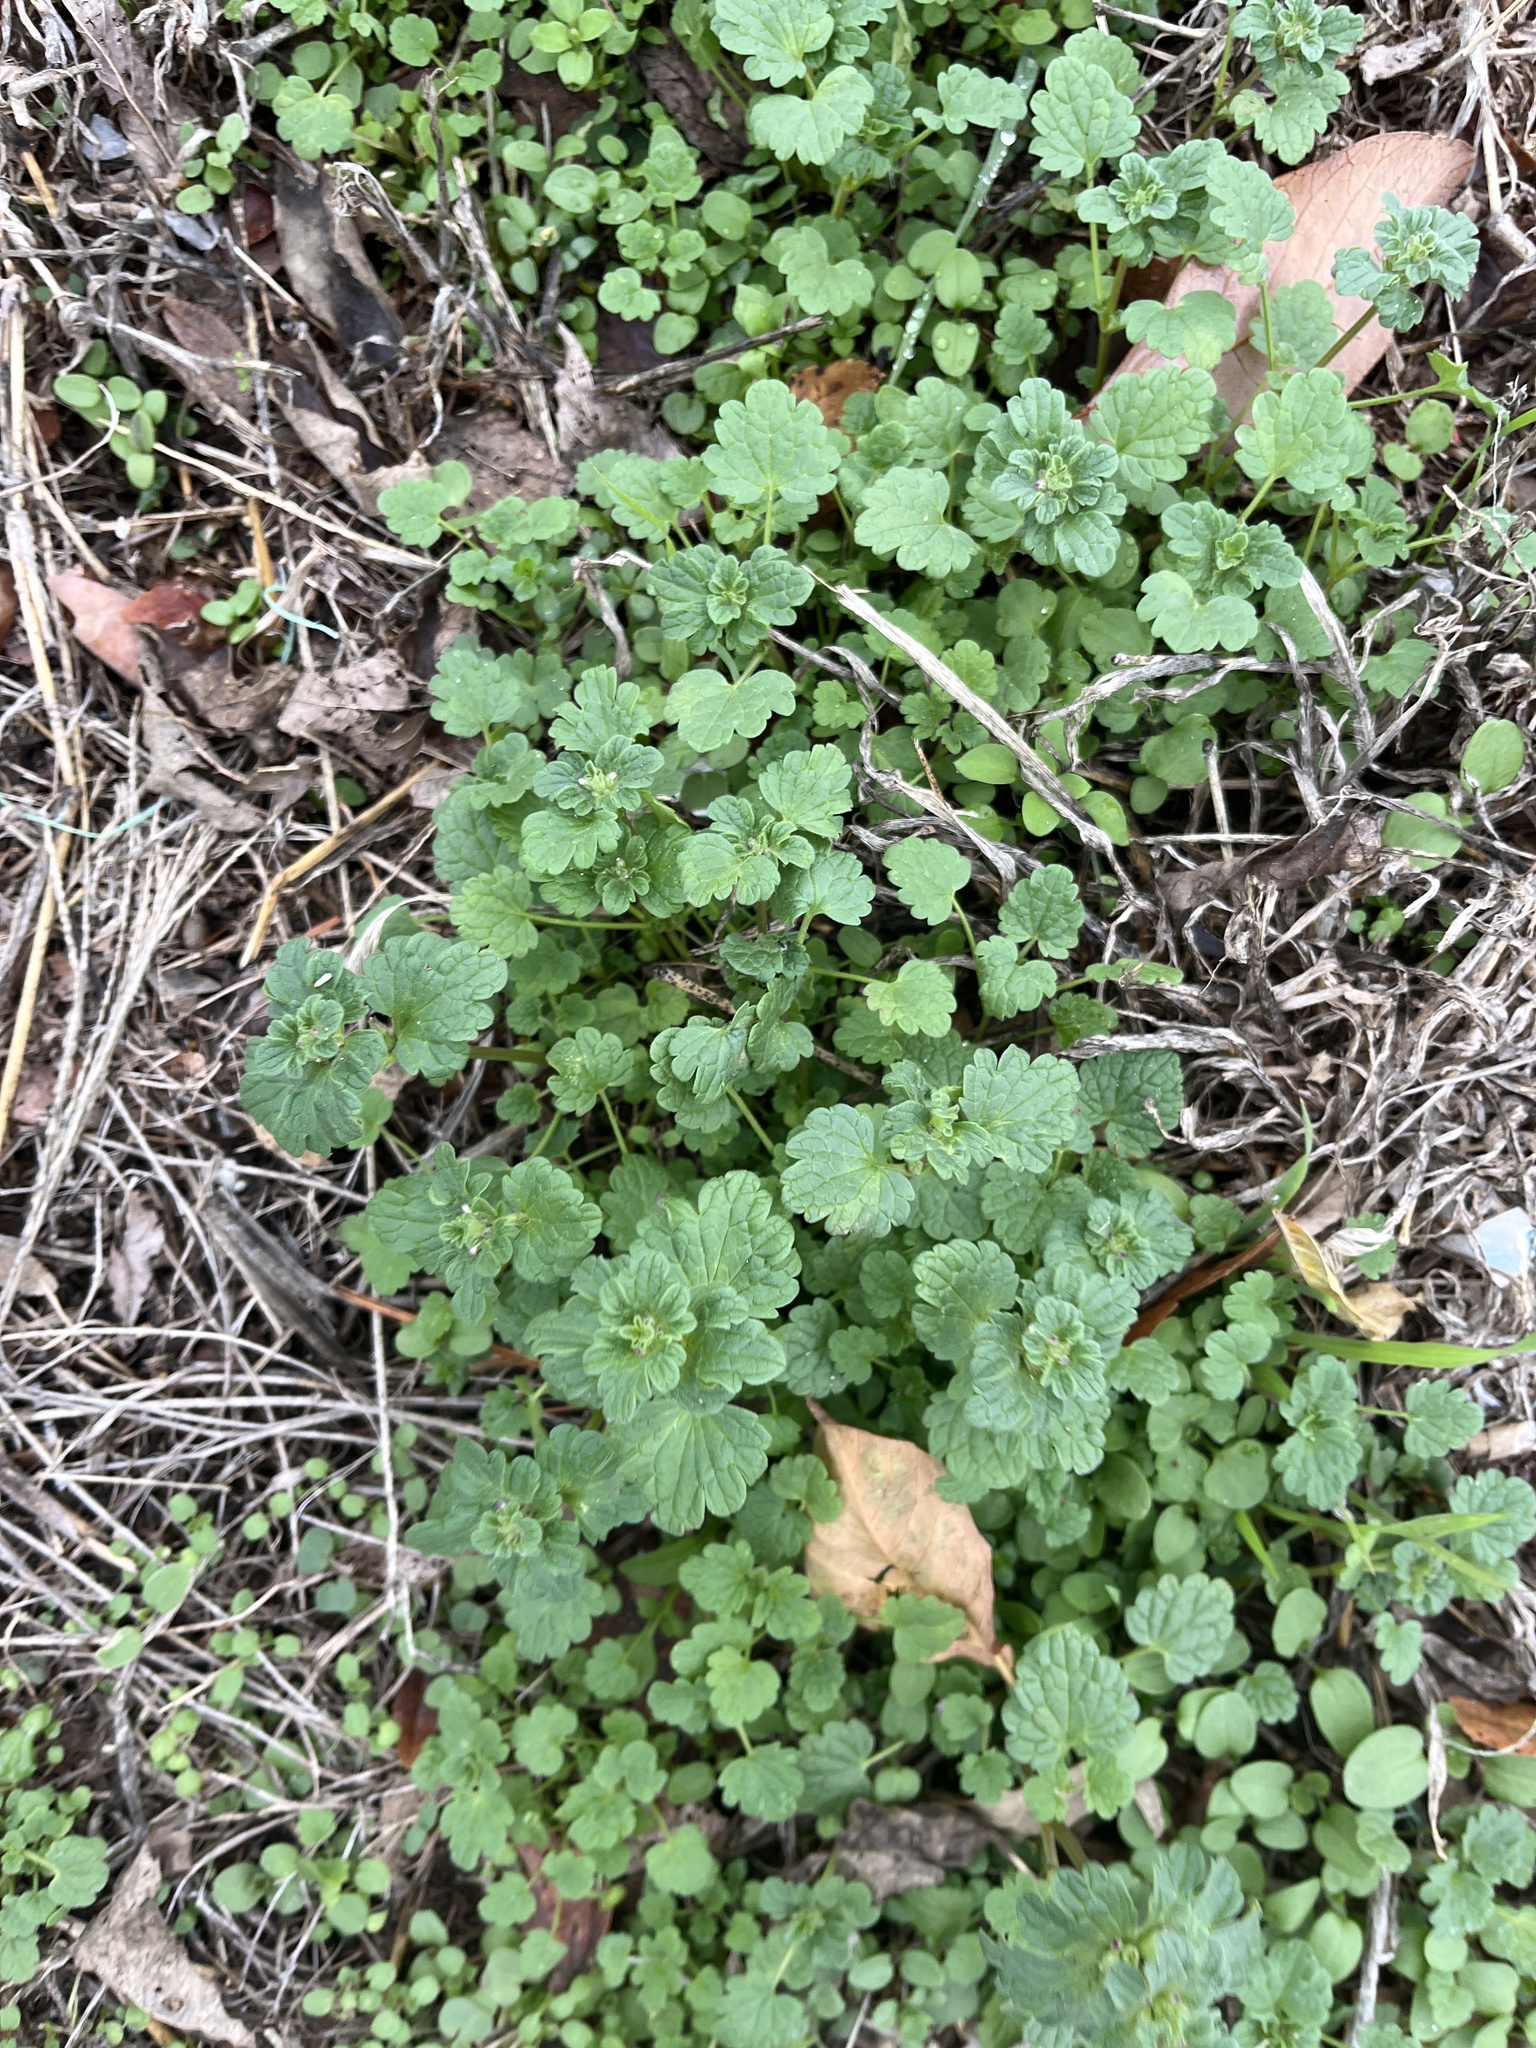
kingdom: Plantae
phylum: Tracheophyta
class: Magnoliopsida
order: Lamiales
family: Lamiaceae
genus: Lamium
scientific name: Lamium amplexicaule
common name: Henbit dead-nettle
